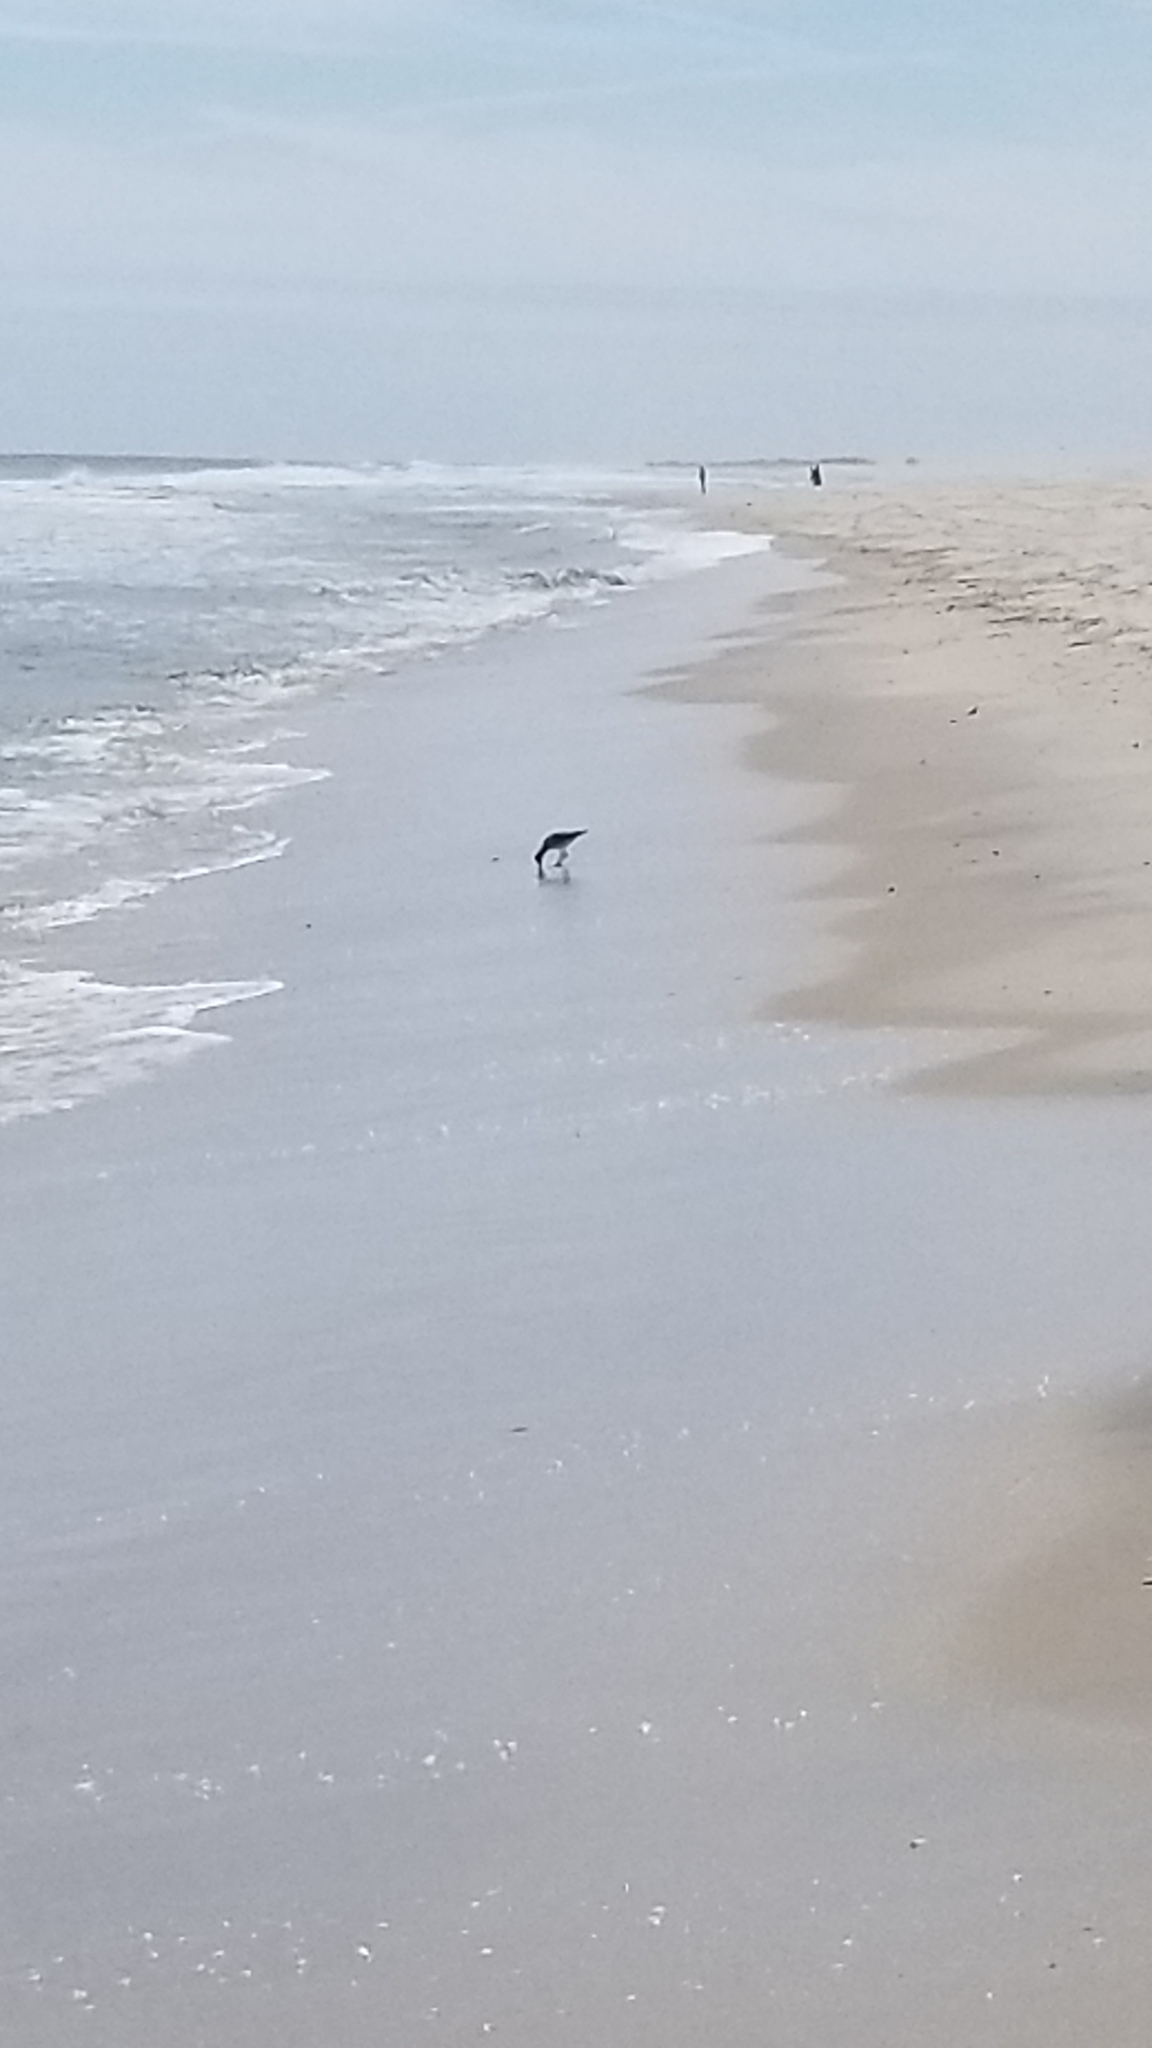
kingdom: Animalia
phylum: Chordata
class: Aves
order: Charadriiformes
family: Scolopacidae
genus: Tringa
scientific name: Tringa semipalmata
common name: Willet
